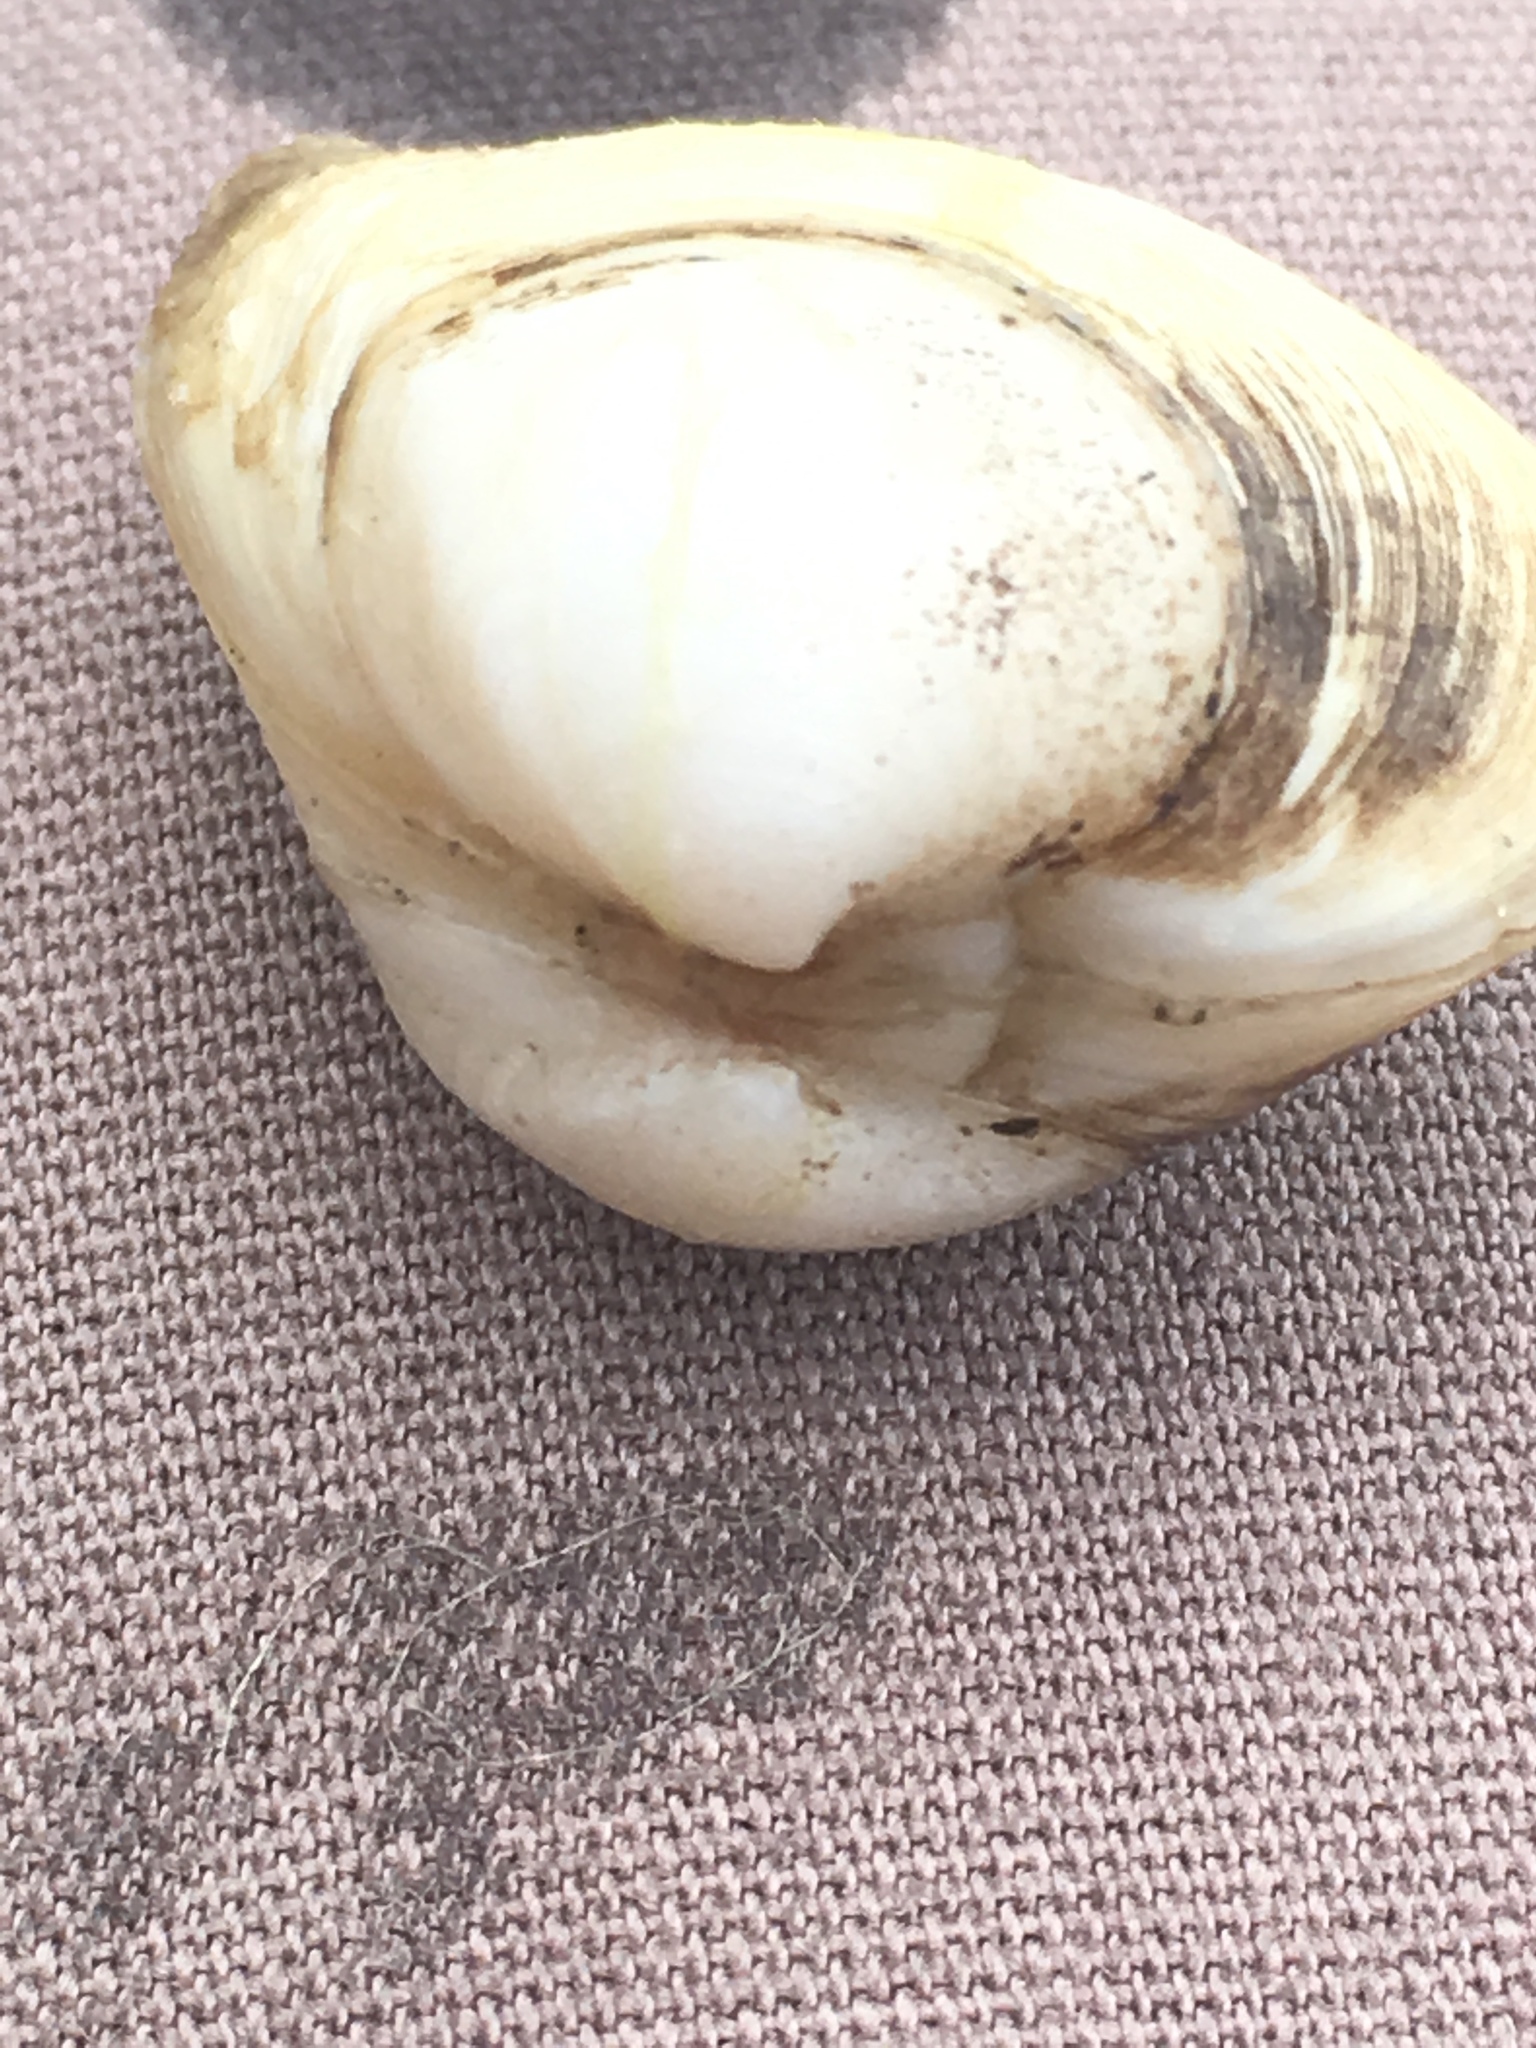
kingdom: Animalia
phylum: Mollusca
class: Bivalvia
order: Venerida
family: Mactridae
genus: Spisula
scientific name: Spisula subtruncata
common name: Cut trough shell
